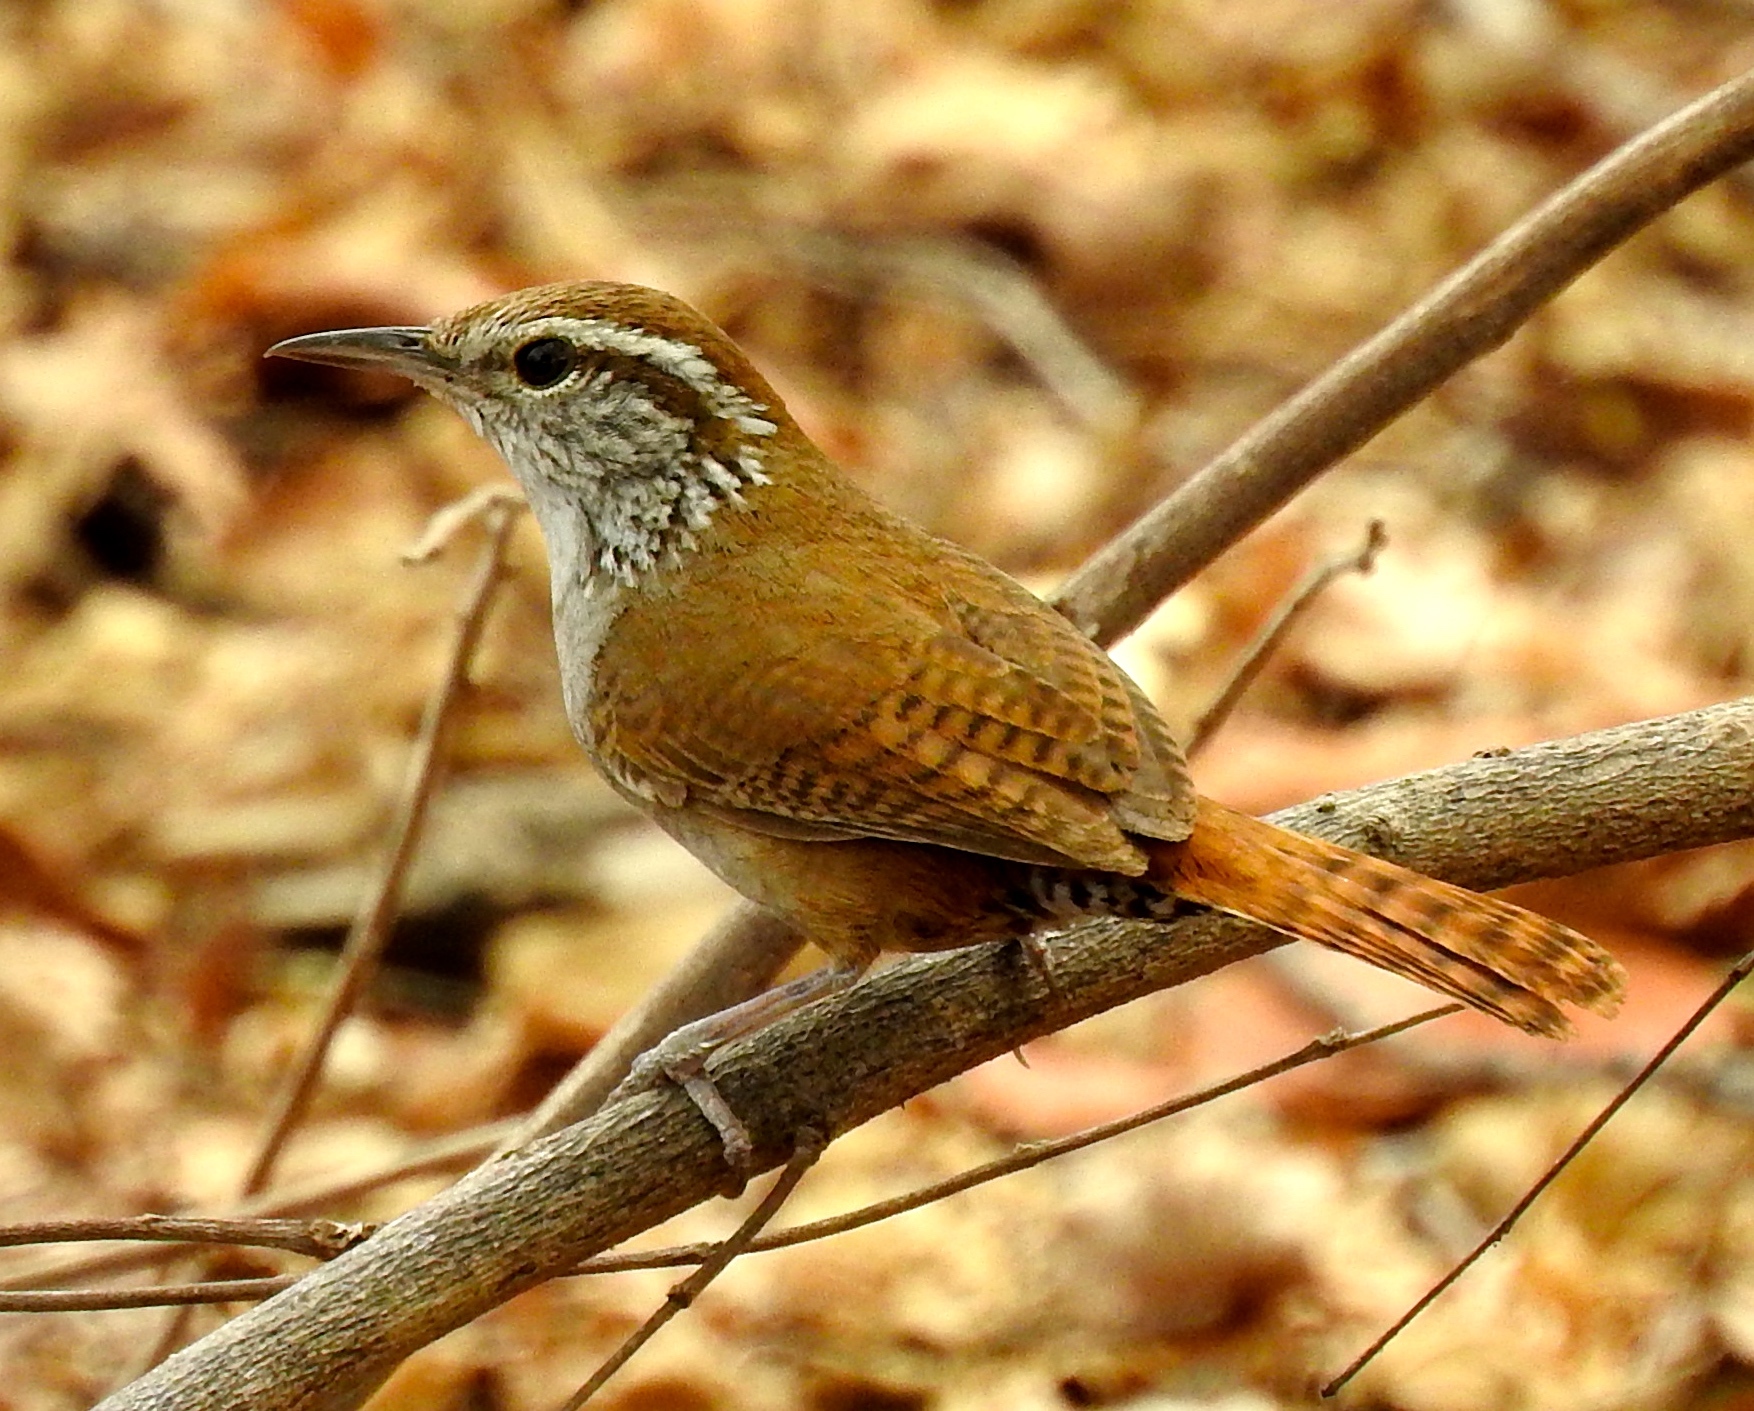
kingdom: Animalia
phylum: Chordata
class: Aves
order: Passeriformes
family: Troglodytidae
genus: Thryophilus
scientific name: Thryophilus sinaloa
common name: Sinaloa wren
